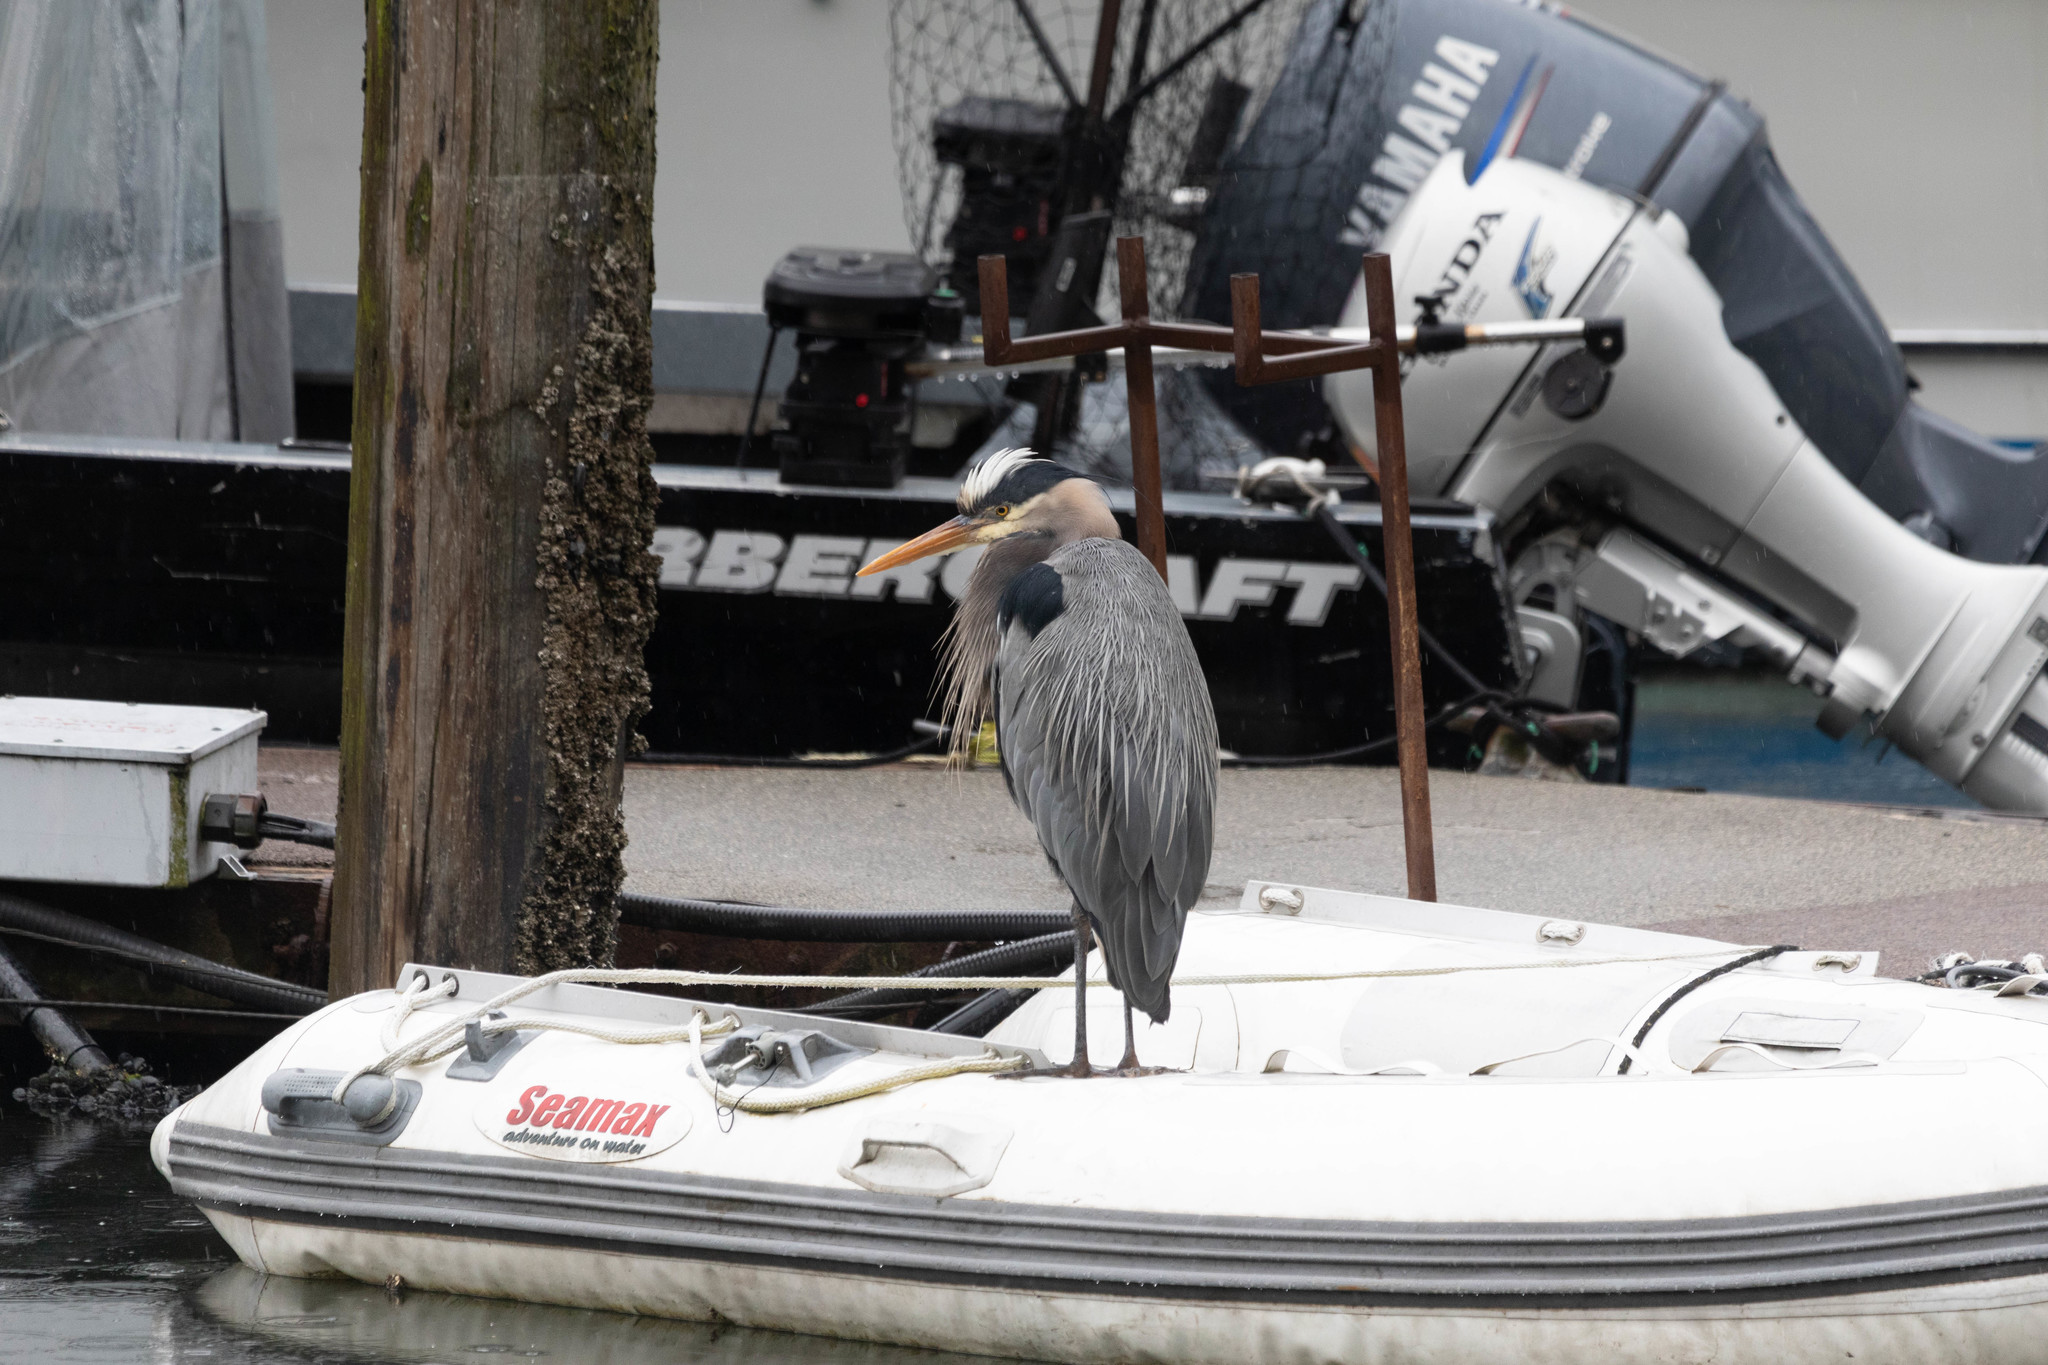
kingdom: Animalia
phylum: Chordata
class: Aves
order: Pelecaniformes
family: Ardeidae
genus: Ardea
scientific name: Ardea herodias
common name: Great blue heron
